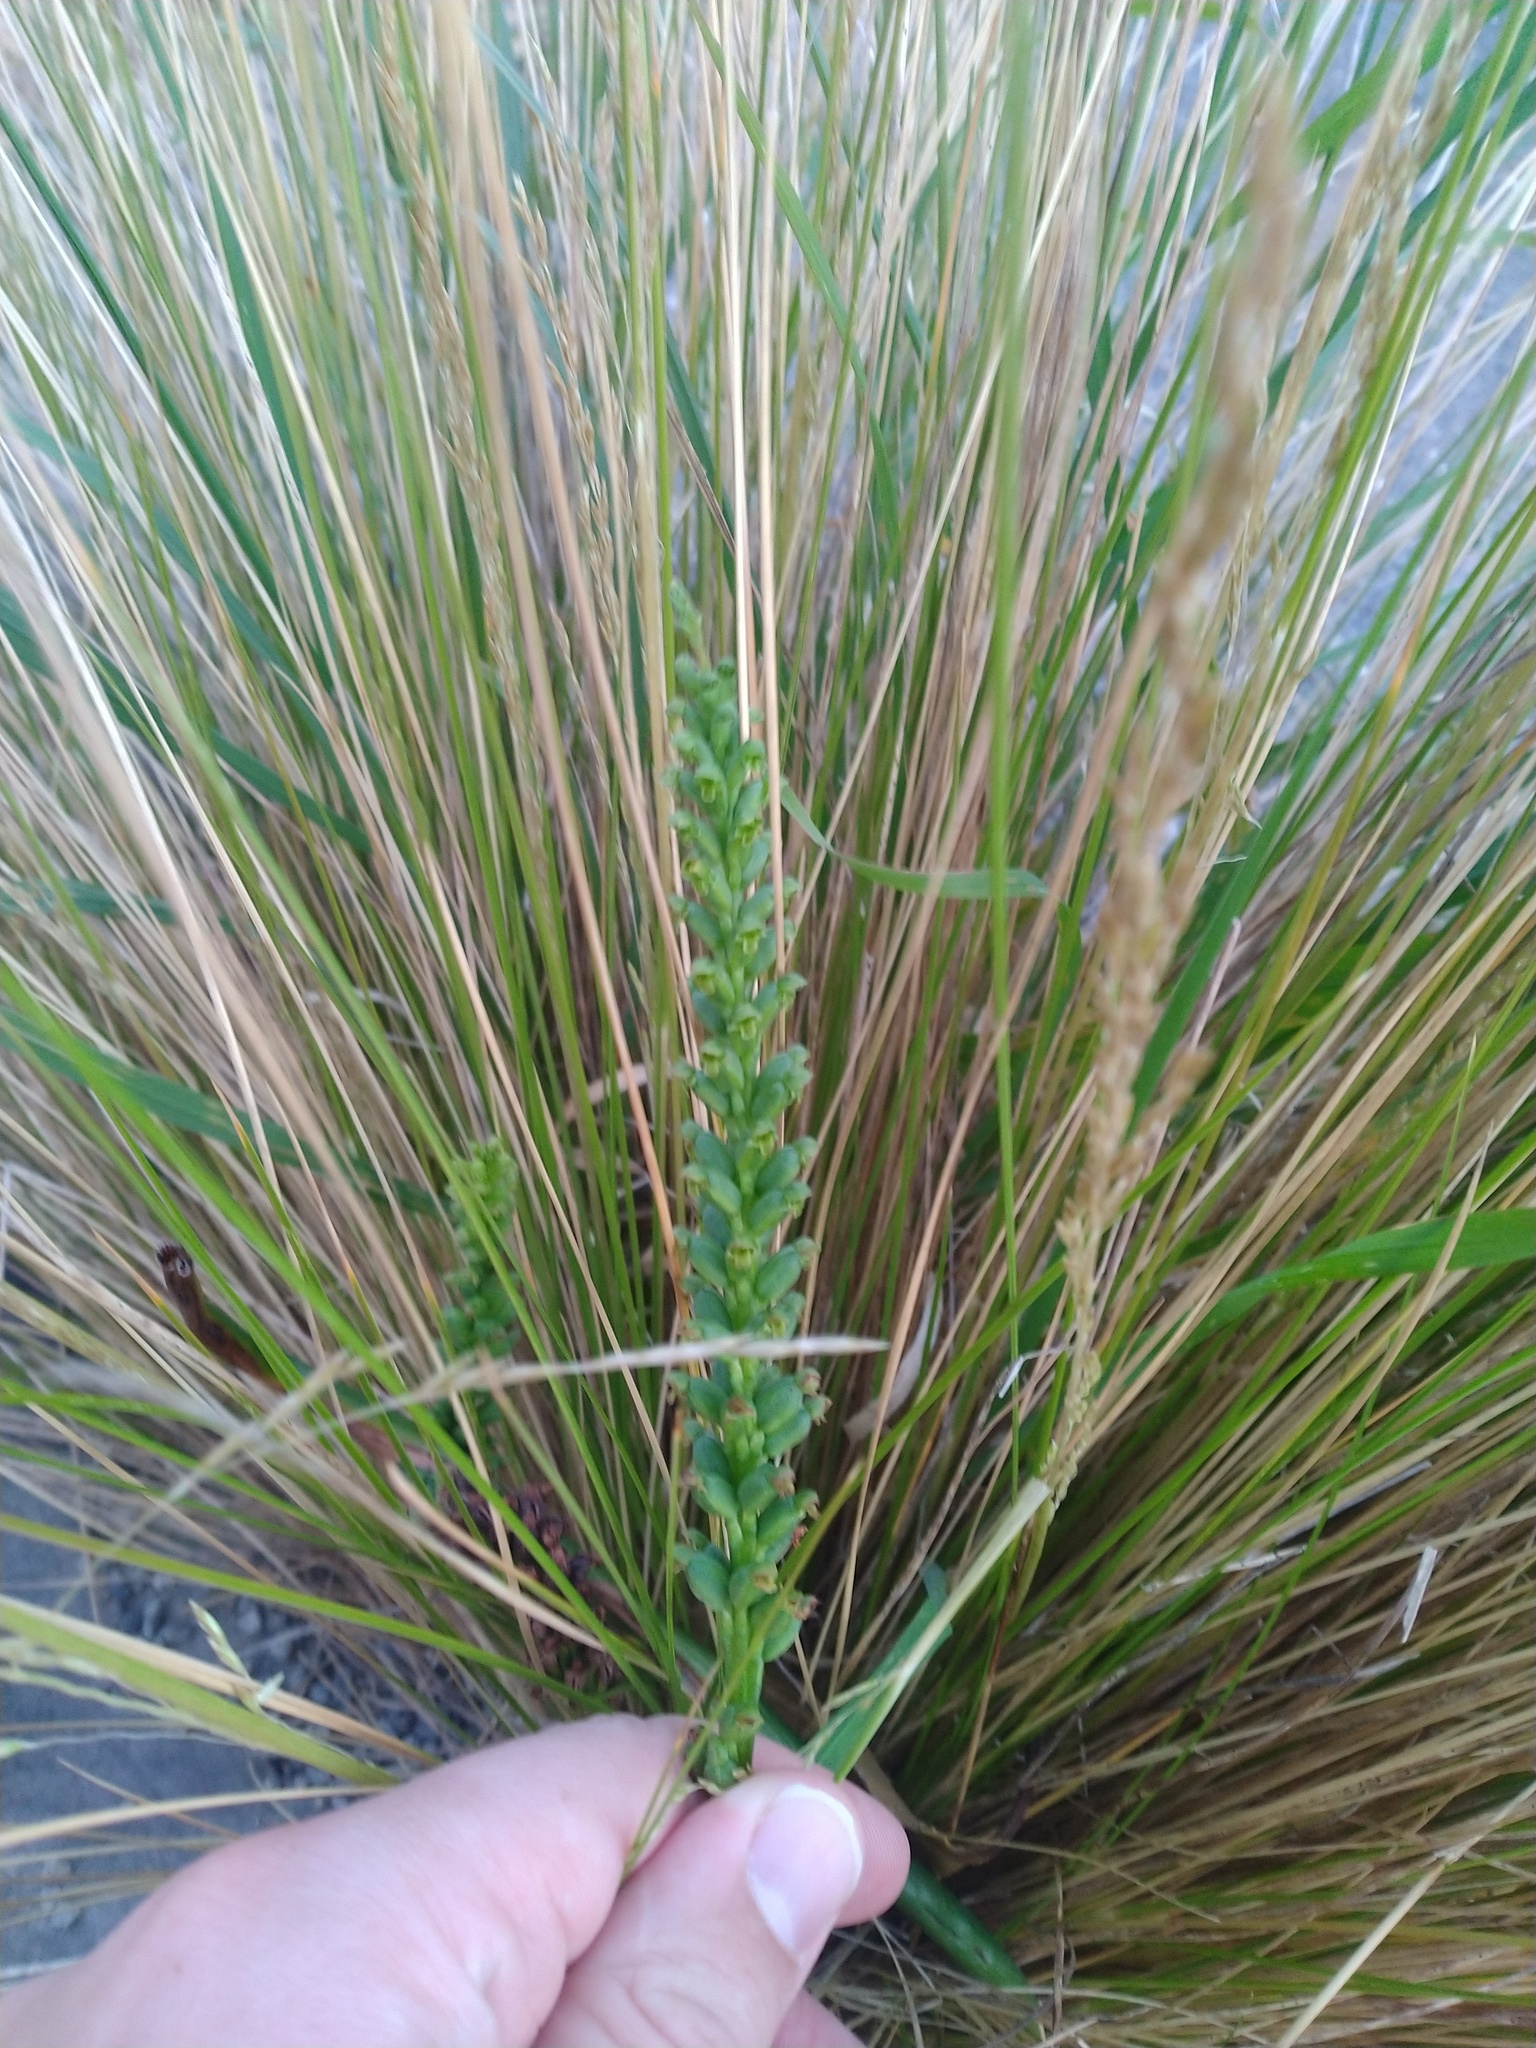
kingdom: Plantae
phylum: Tracheophyta
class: Liliopsida
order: Asparagales
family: Orchidaceae
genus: Microtis
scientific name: Microtis unifolia
